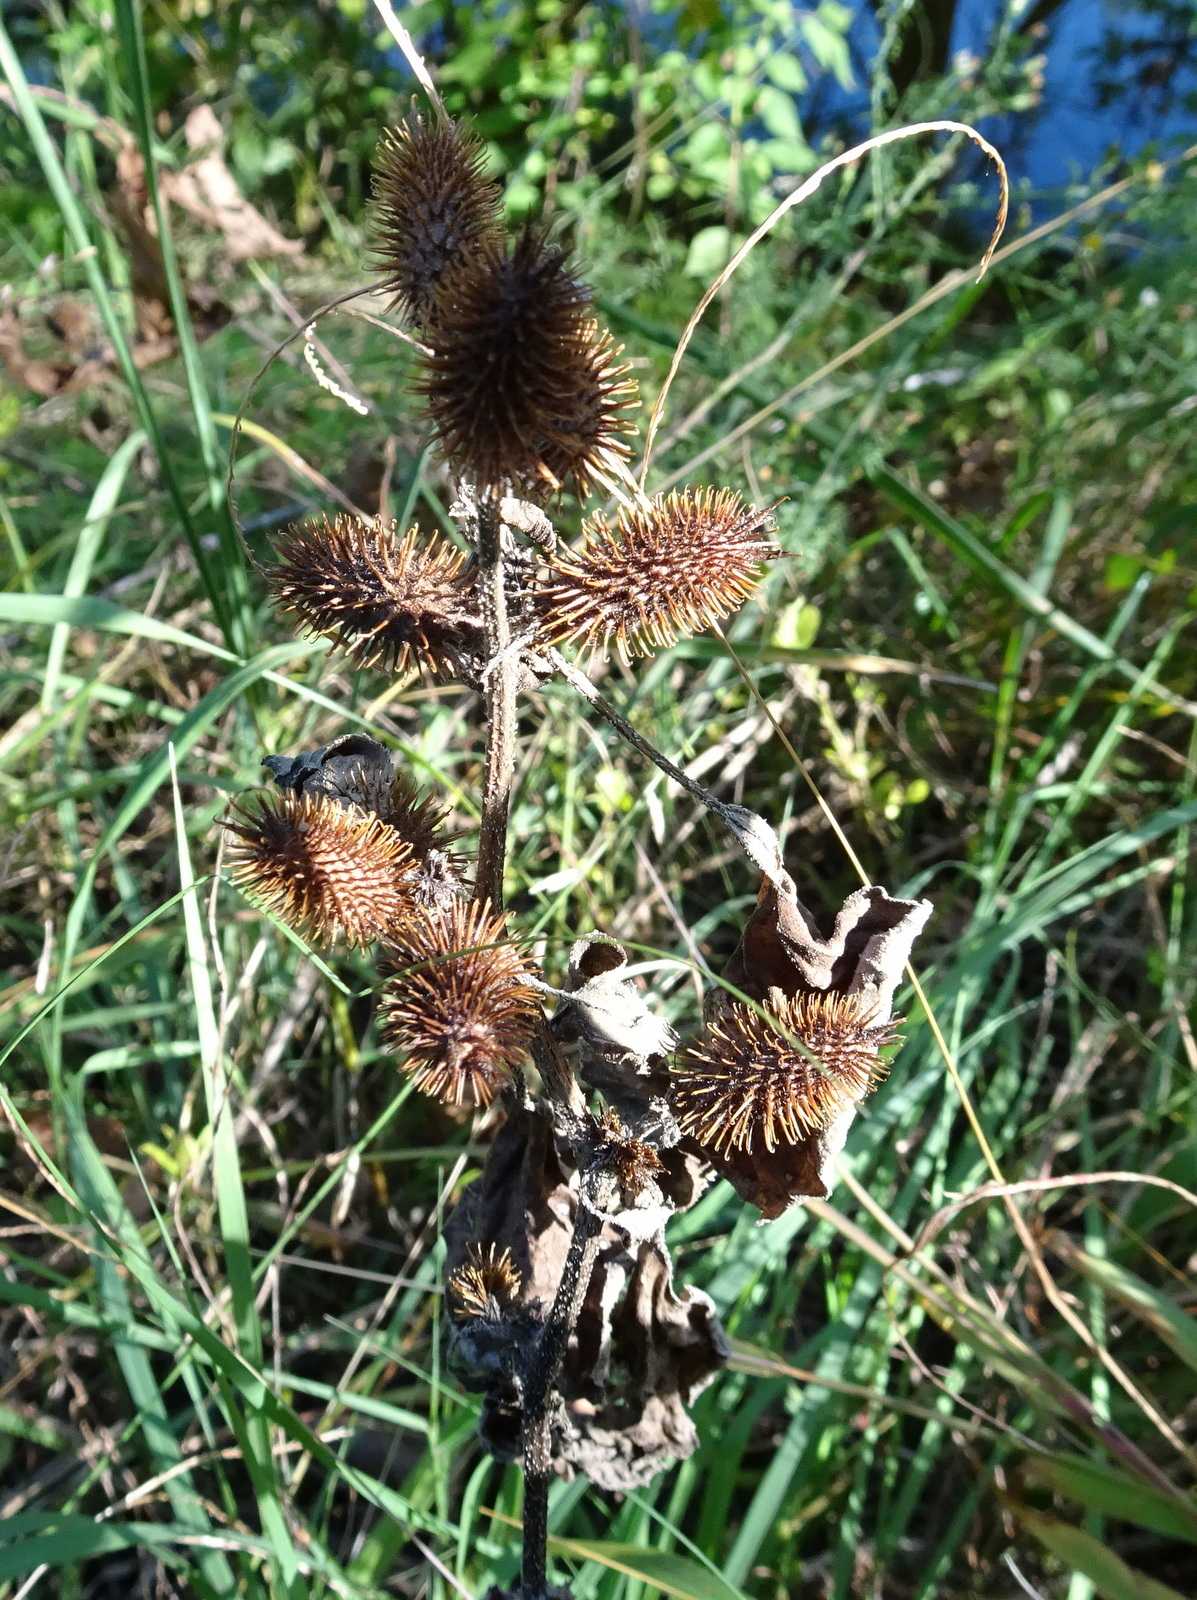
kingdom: Plantae
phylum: Tracheophyta
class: Magnoliopsida
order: Asterales
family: Asteraceae
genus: Xanthium
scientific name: Xanthium strumarium
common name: Rough cocklebur
